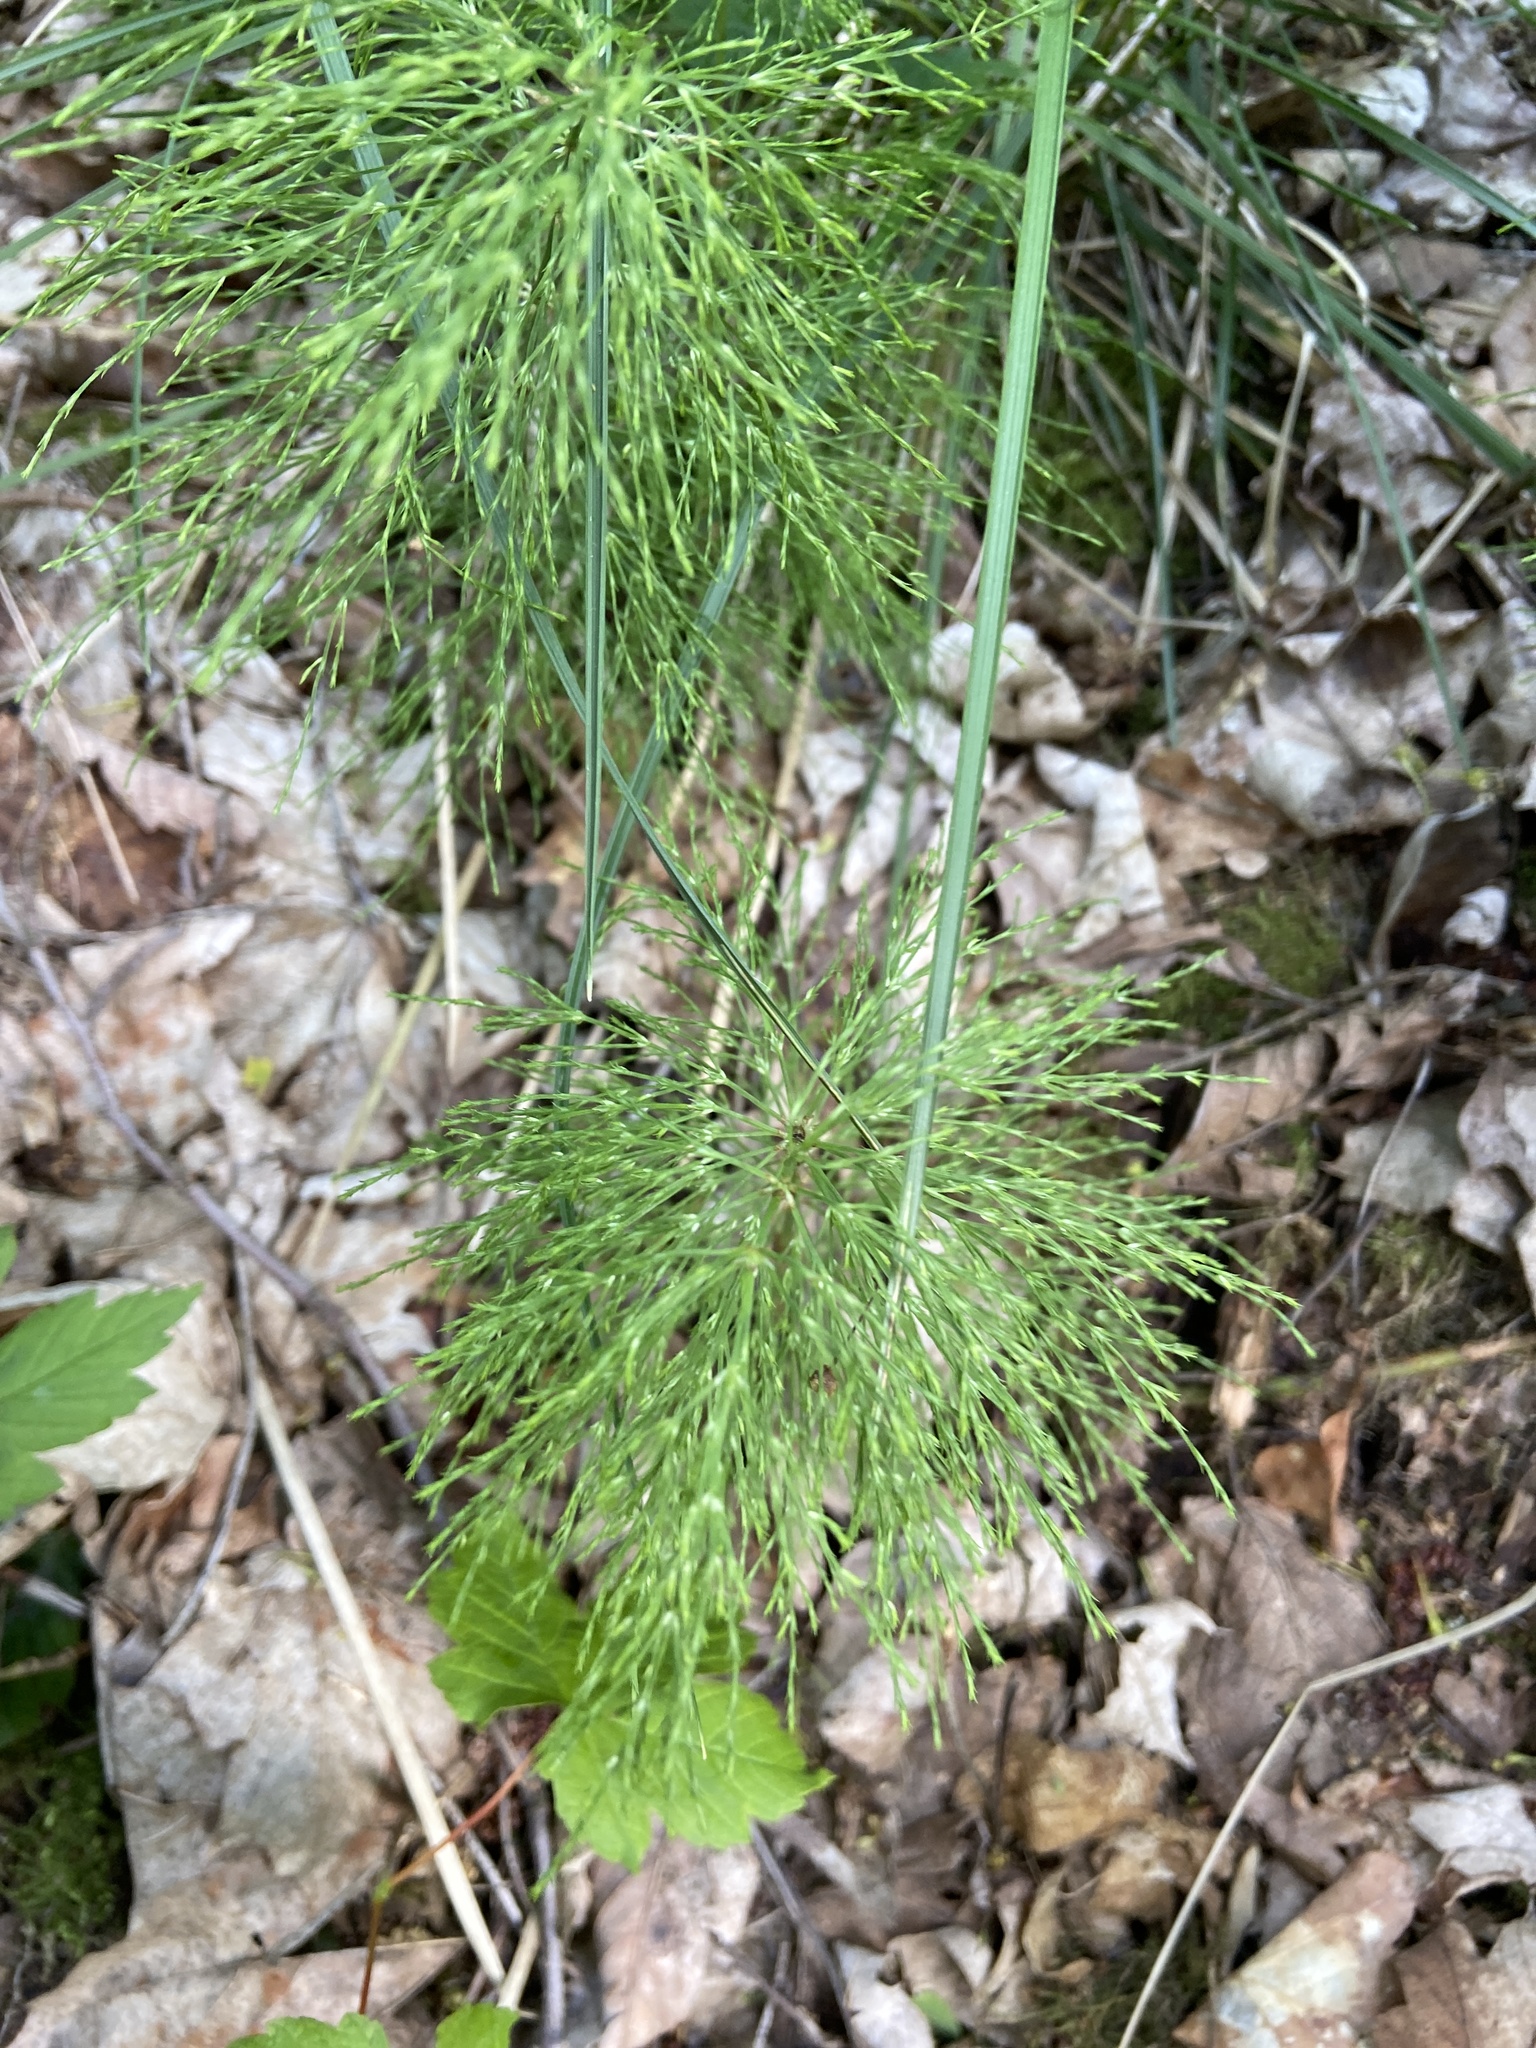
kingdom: Plantae
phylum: Tracheophyta
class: Polypodiopsida
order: Equisetales
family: Equisetaceae
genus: Equisetum
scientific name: Equisetum sylvaticum
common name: Wood horsetail
